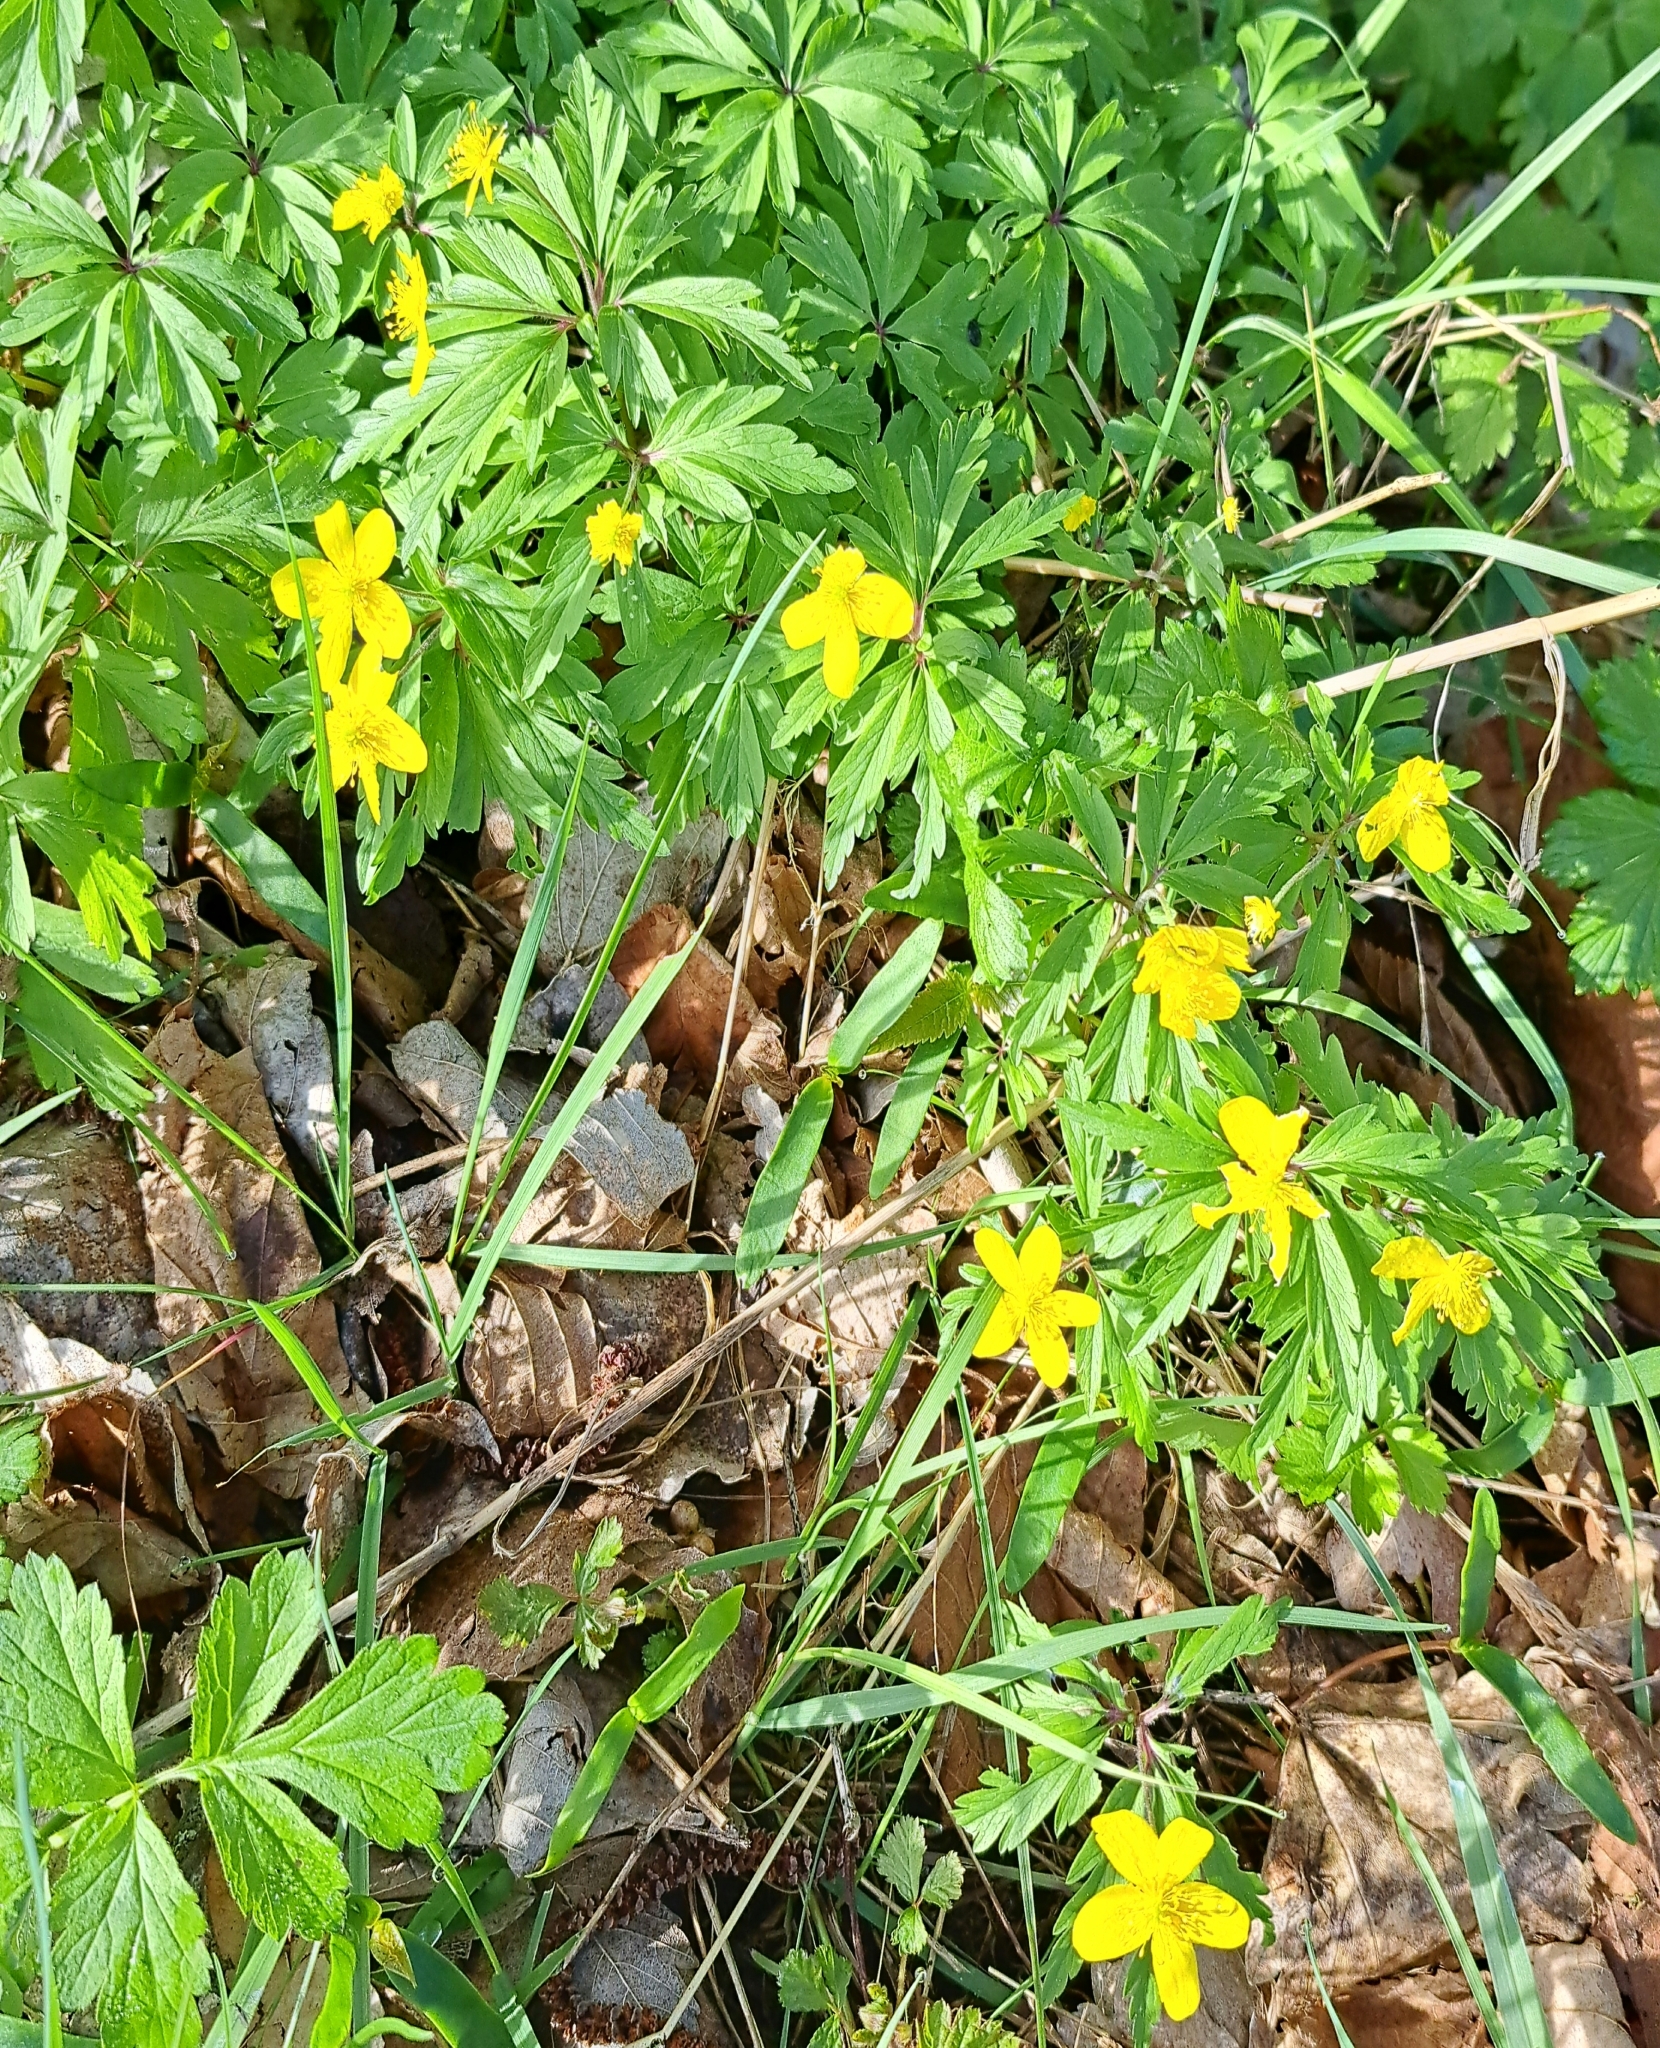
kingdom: Plantae
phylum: Tracheophyta
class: Magnoliopsida
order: Ranunculales
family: Ranunculaceae
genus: Anemone
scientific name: Anemone ranunculoides
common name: Yellow anemone
